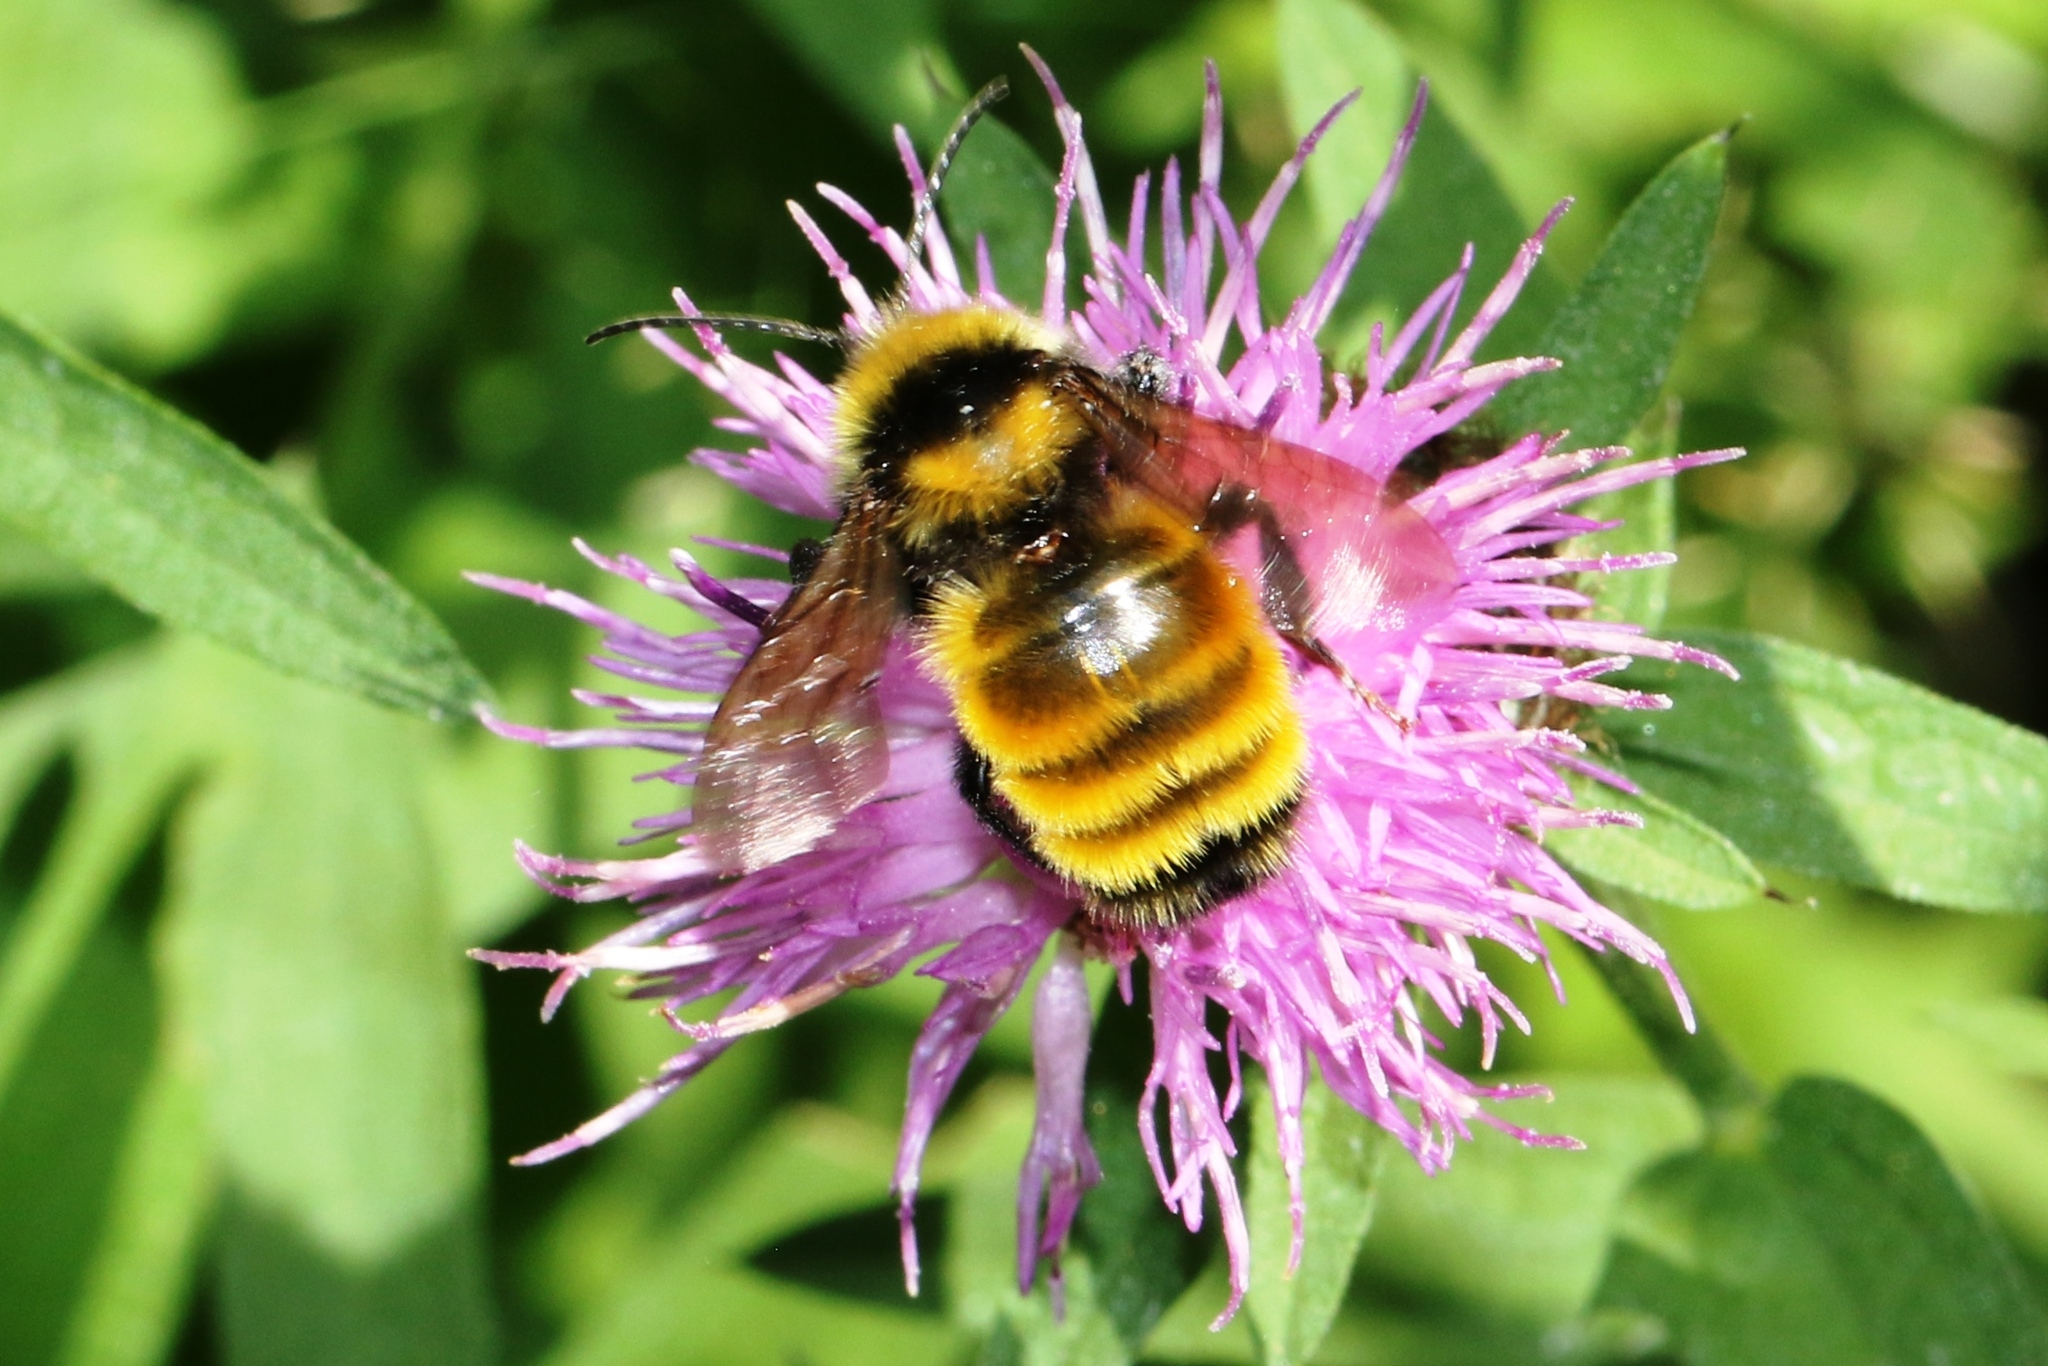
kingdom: Animalia
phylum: Arthropoda
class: Insecta
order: Hymenoptera
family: Apidae
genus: Bombus
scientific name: Bombus borealis
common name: Northern amber bumble bee
